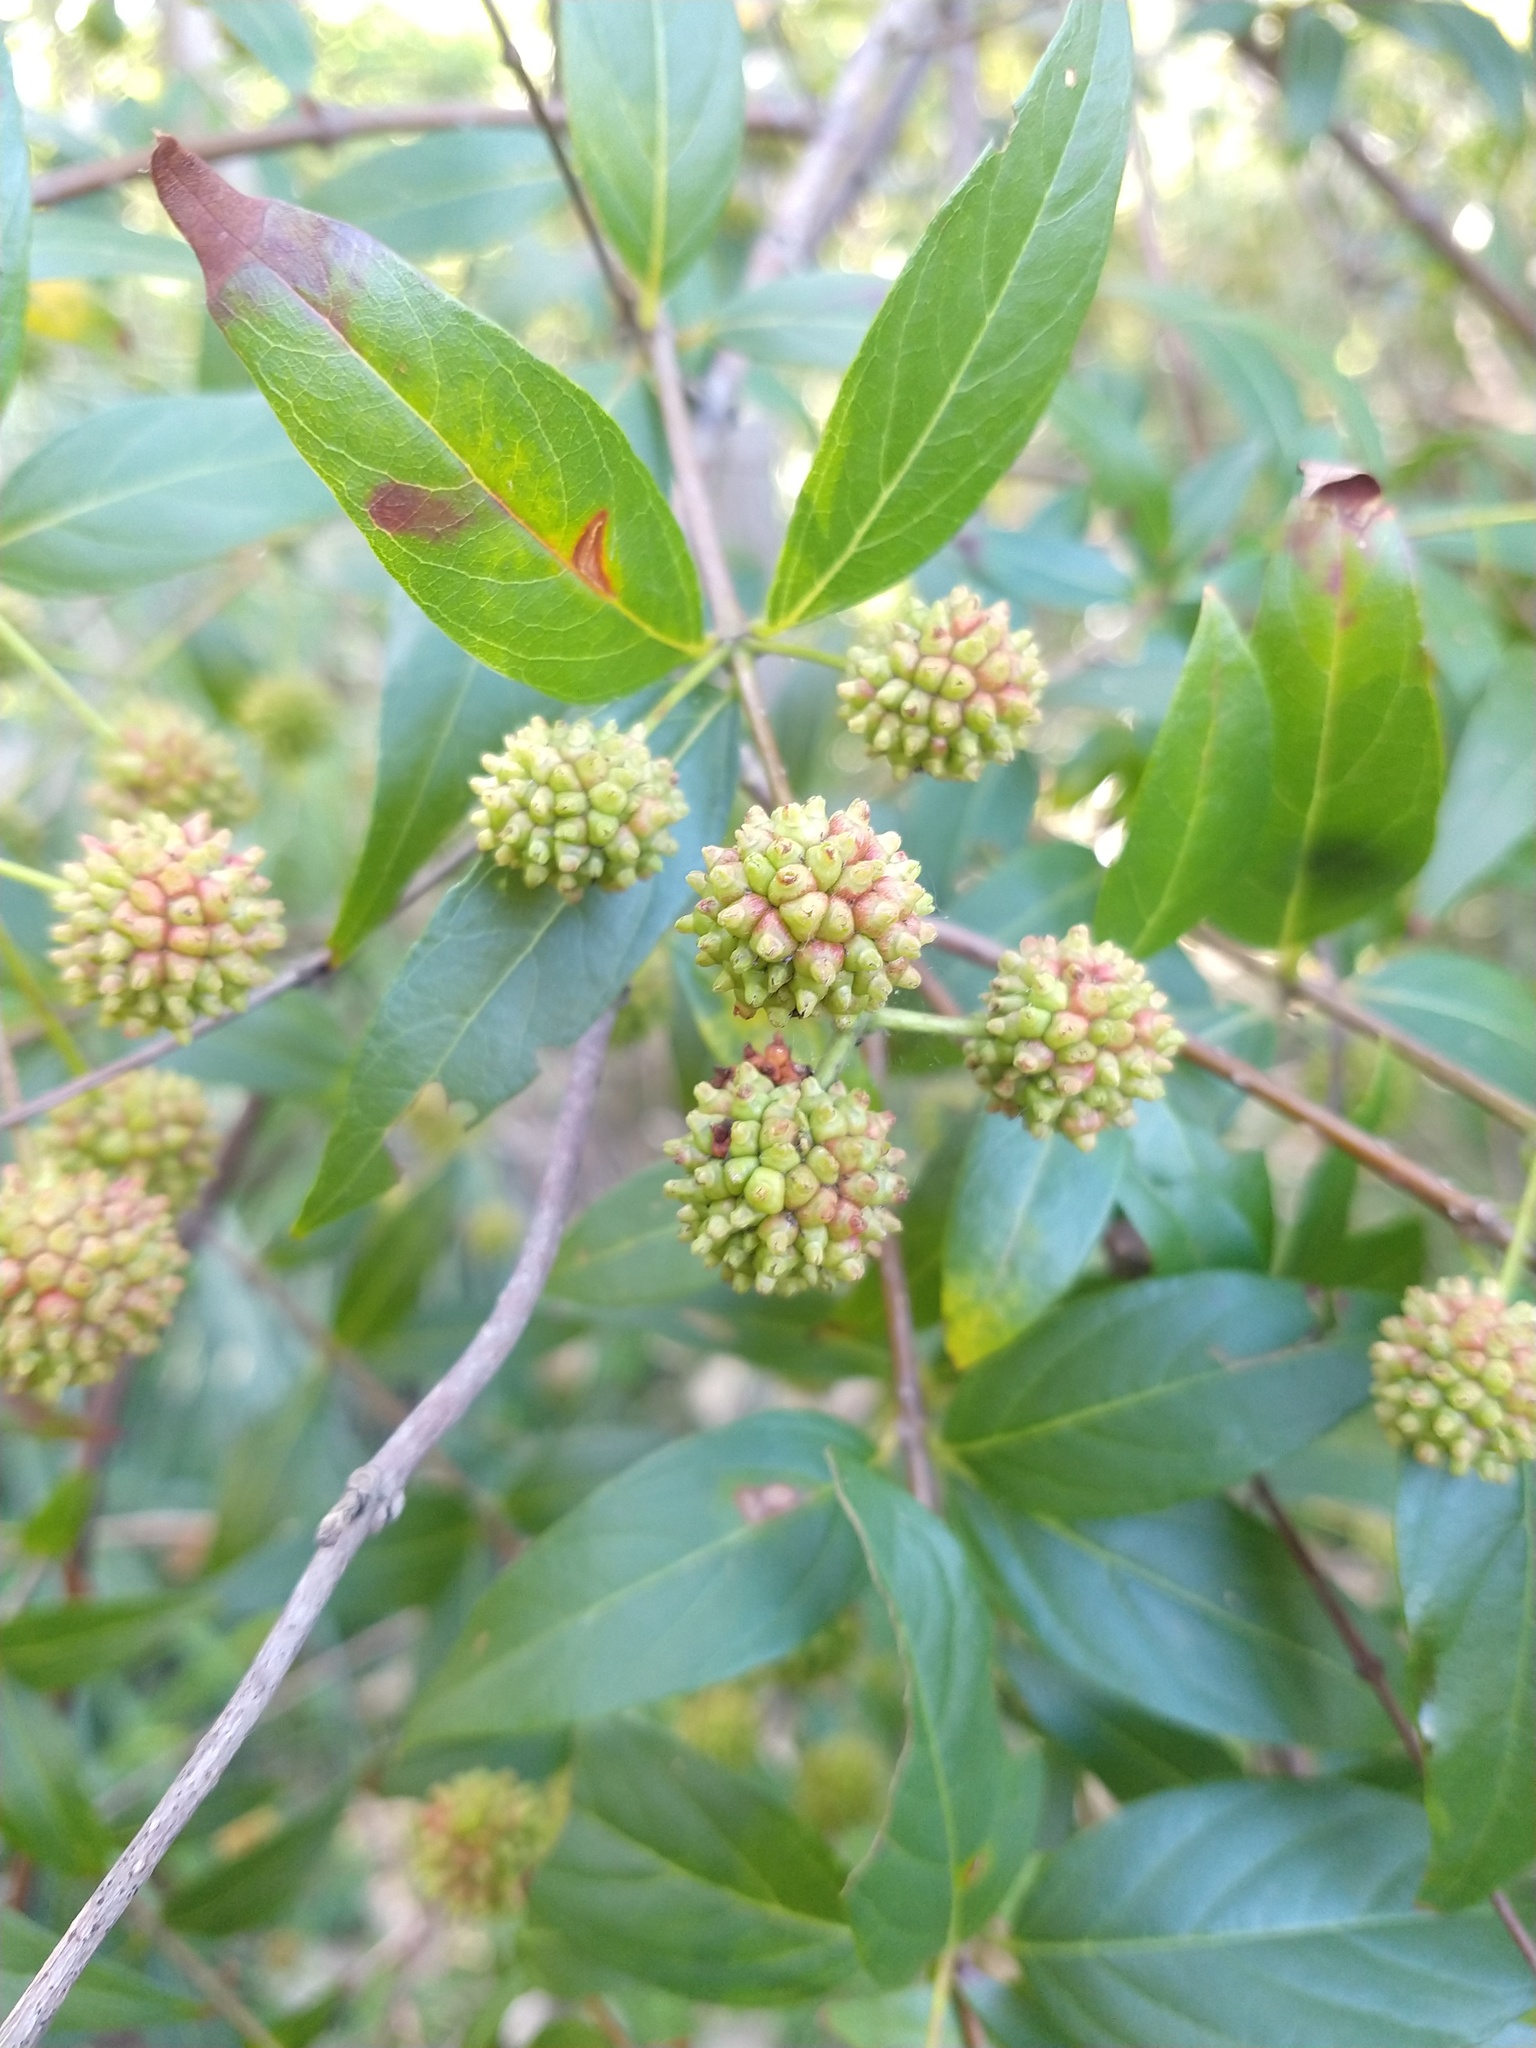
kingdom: Plantae
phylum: Tracheophyta
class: Magnoliopsida
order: Gentianales
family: Rubiaceae
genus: Cephalanthus
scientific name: Cephalanthus glabratus
